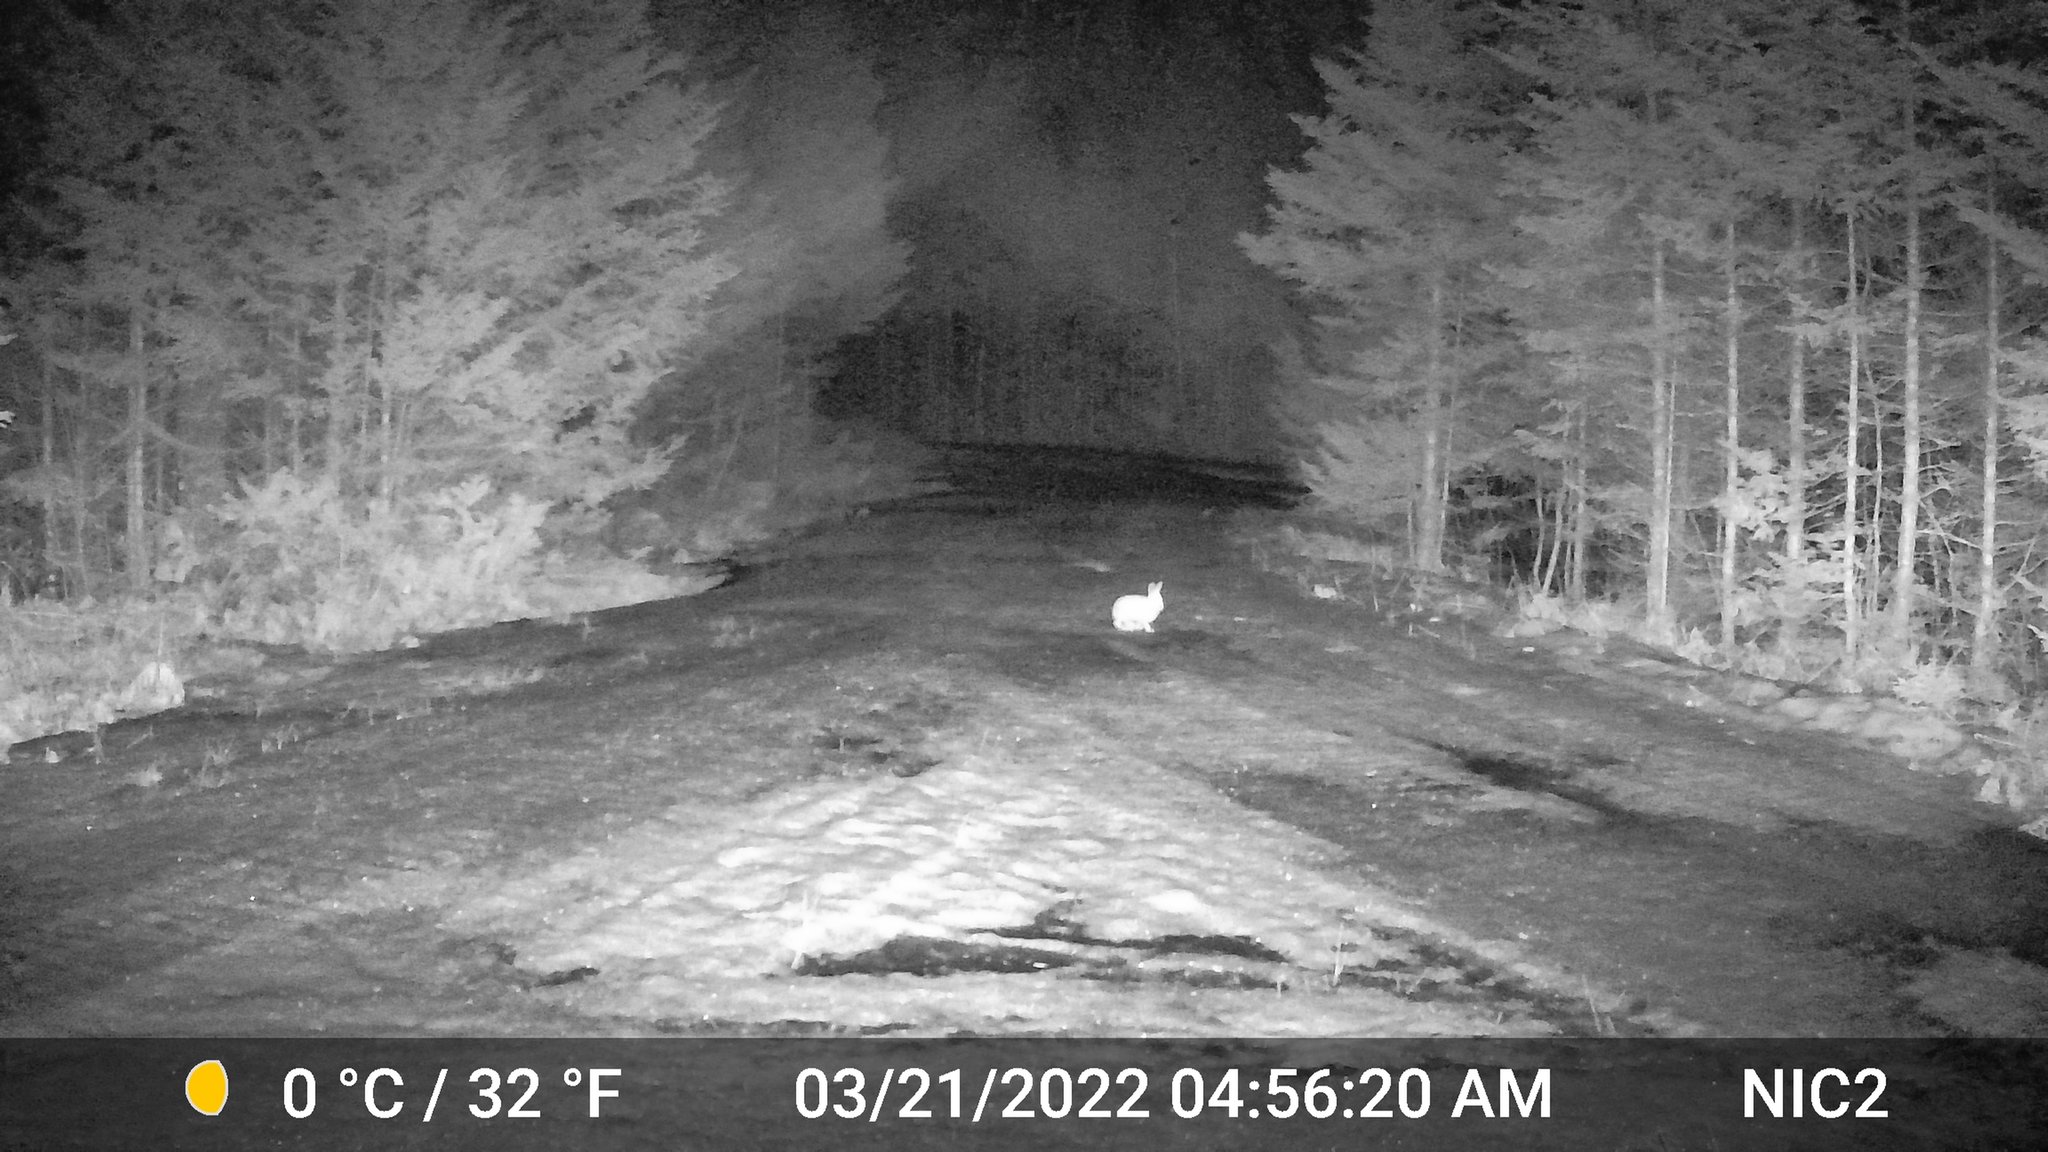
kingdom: Animalia
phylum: Chordata
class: Mammalia
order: Lagomorpha
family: Leporidae
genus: Lepus
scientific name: Lepus americanus
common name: Snowshoe hare
